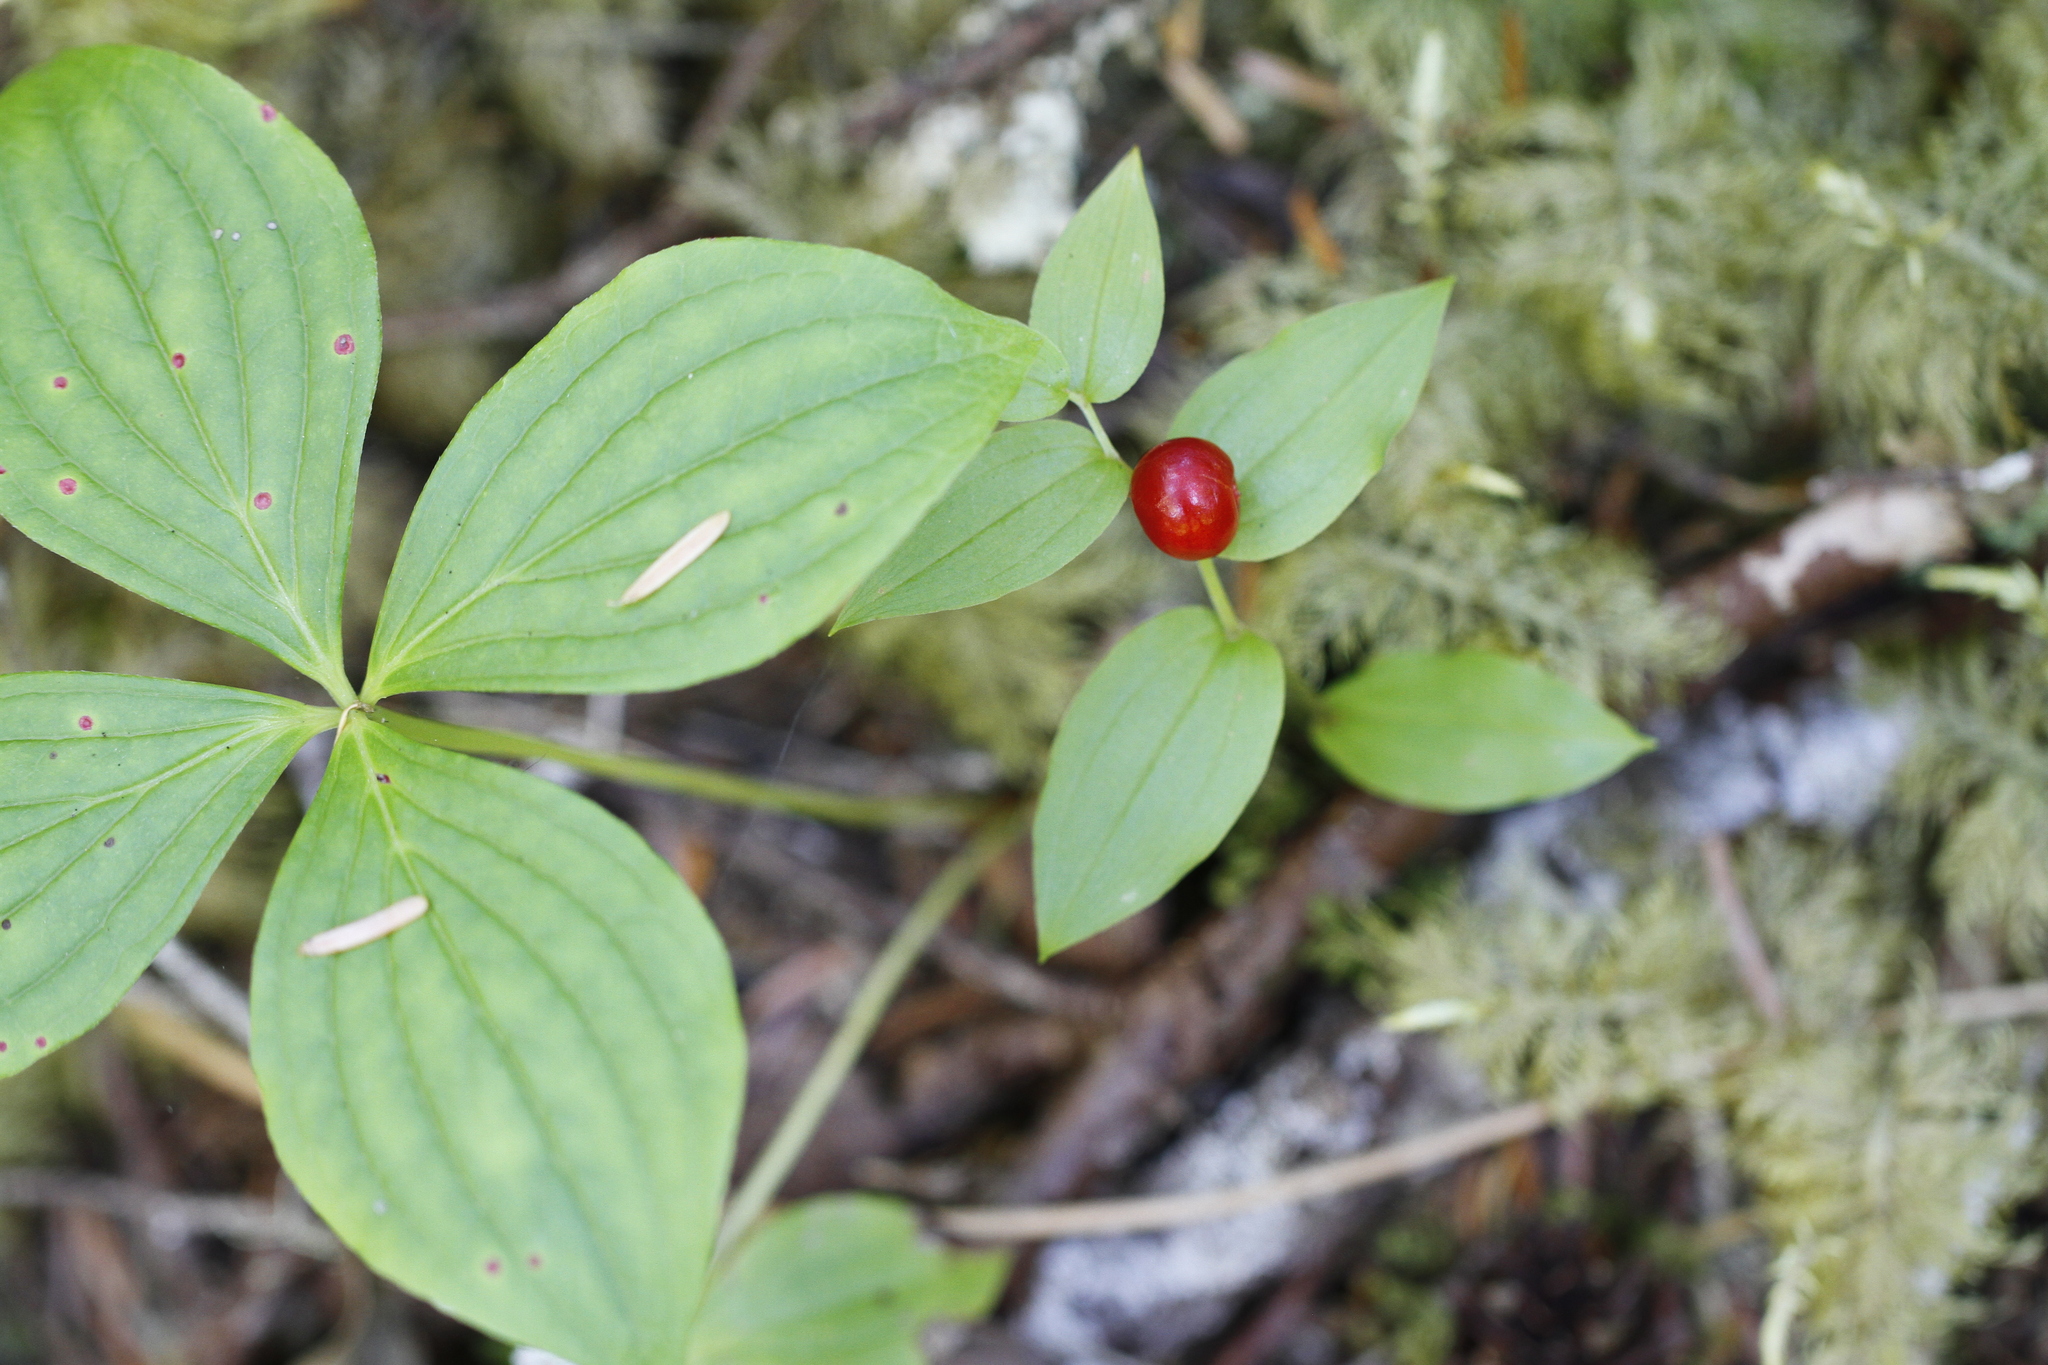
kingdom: Plantae
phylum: Tracheophyta
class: Liliopsida
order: Liliales
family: Liliaceae
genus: Streptopus
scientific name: Streptopus streptopoides
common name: Small twisted-stalk
